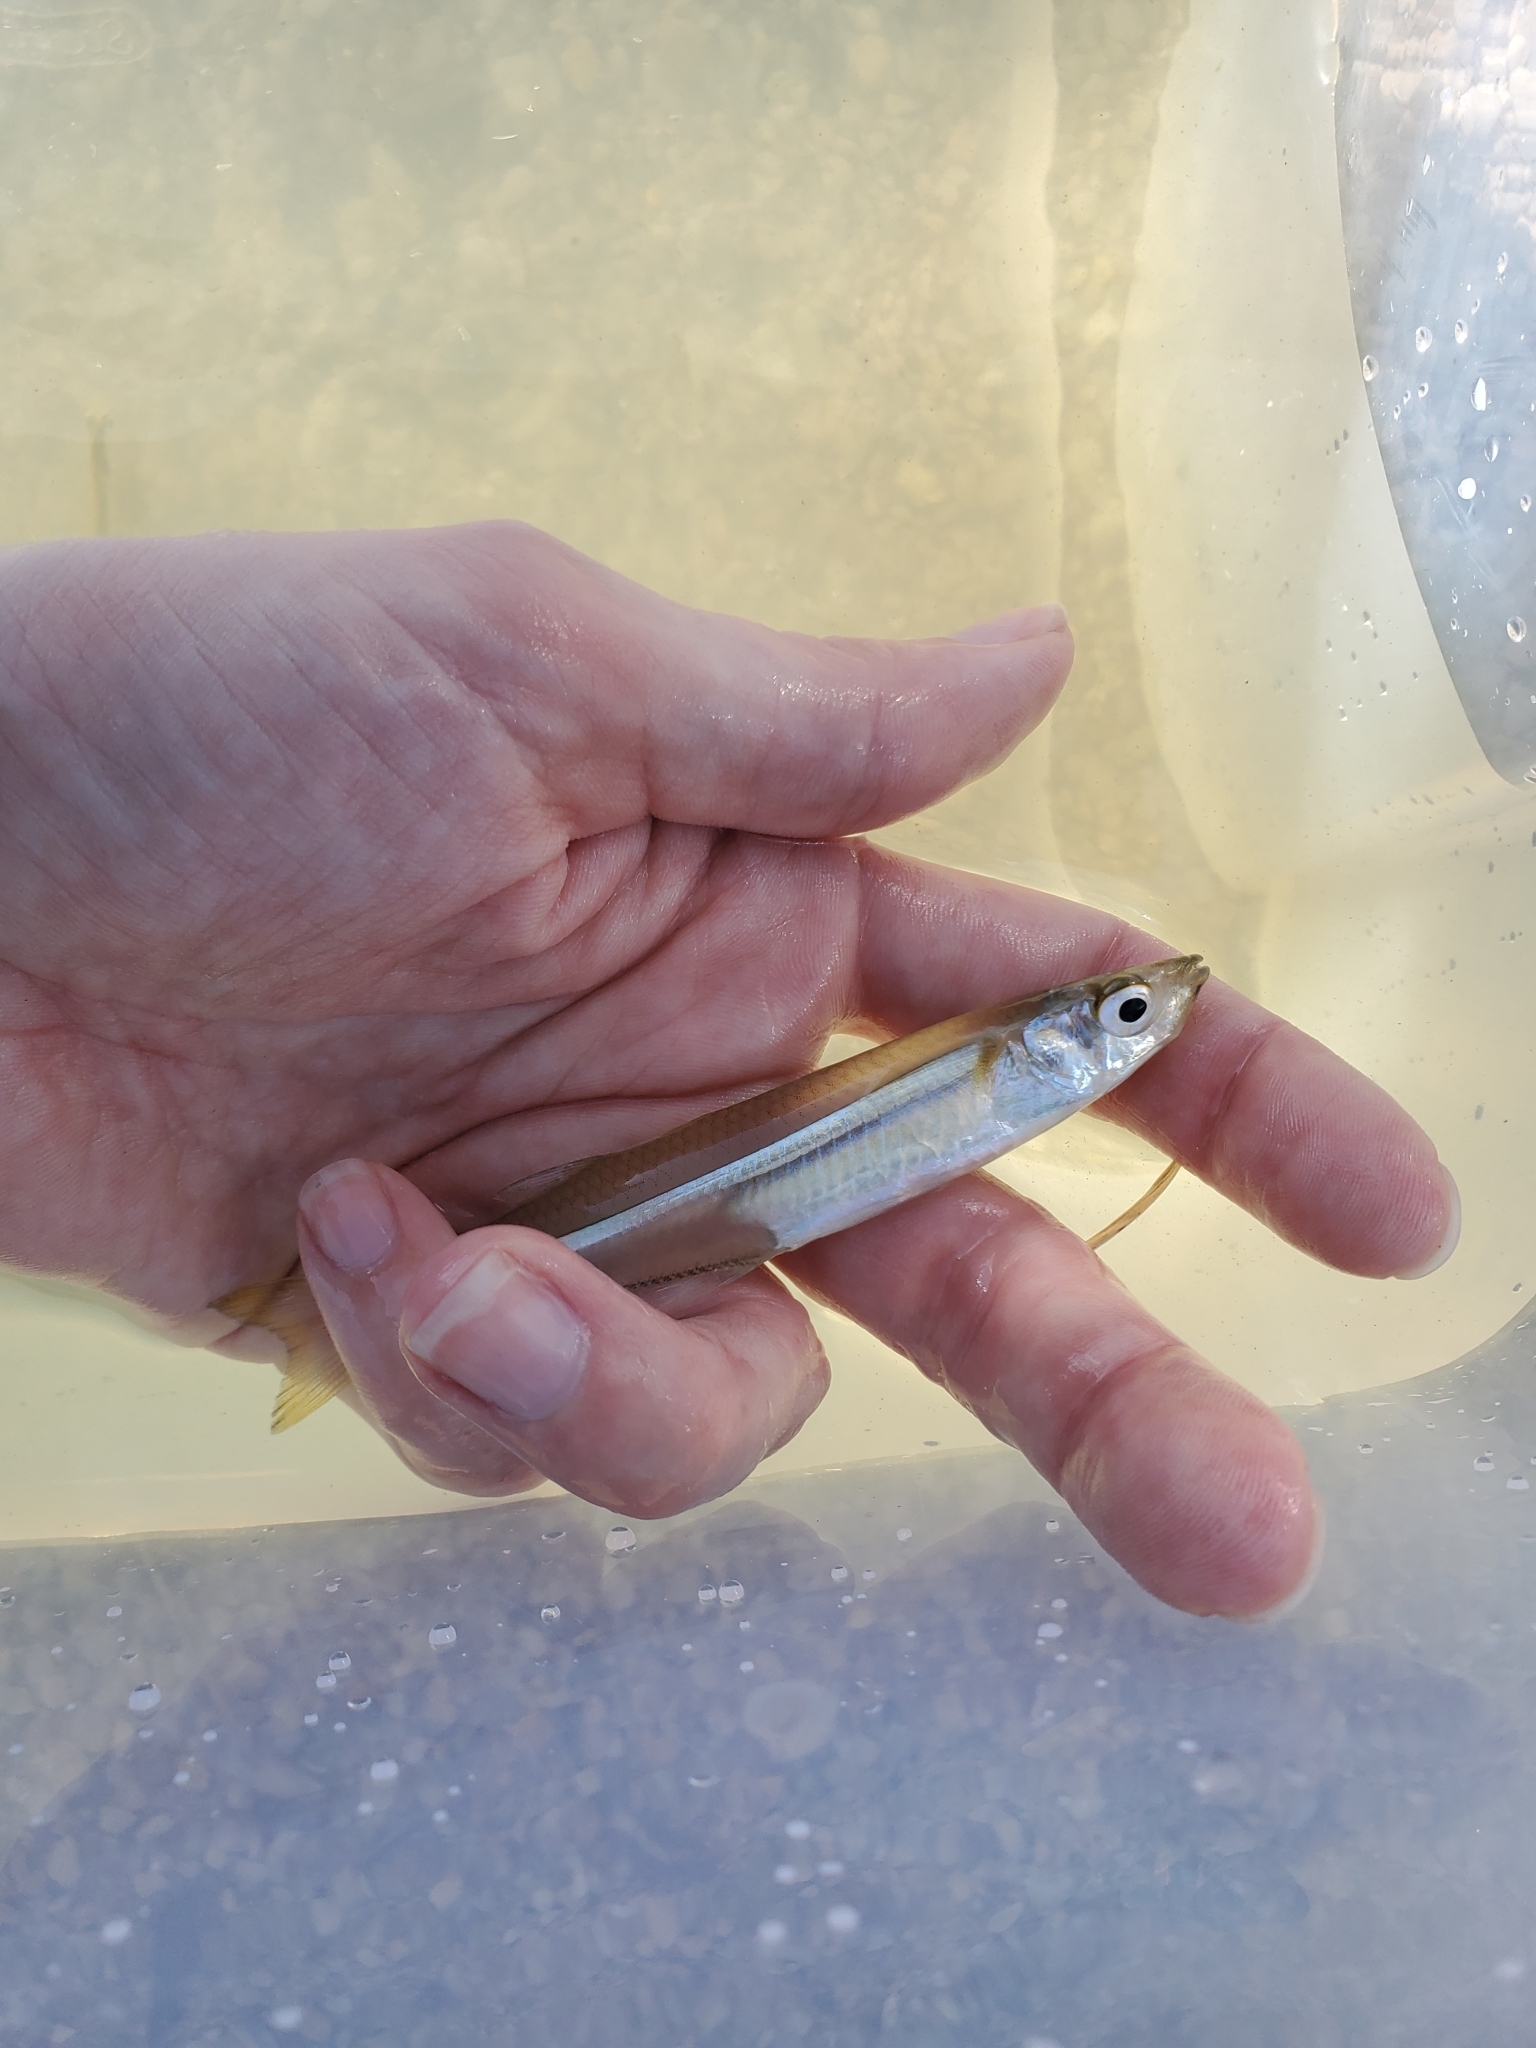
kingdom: Animalia
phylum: Chordata
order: Atheriniformes
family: Atherinopsidae
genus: Menidia
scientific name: Menidia menidia
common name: Atlantic silverside
